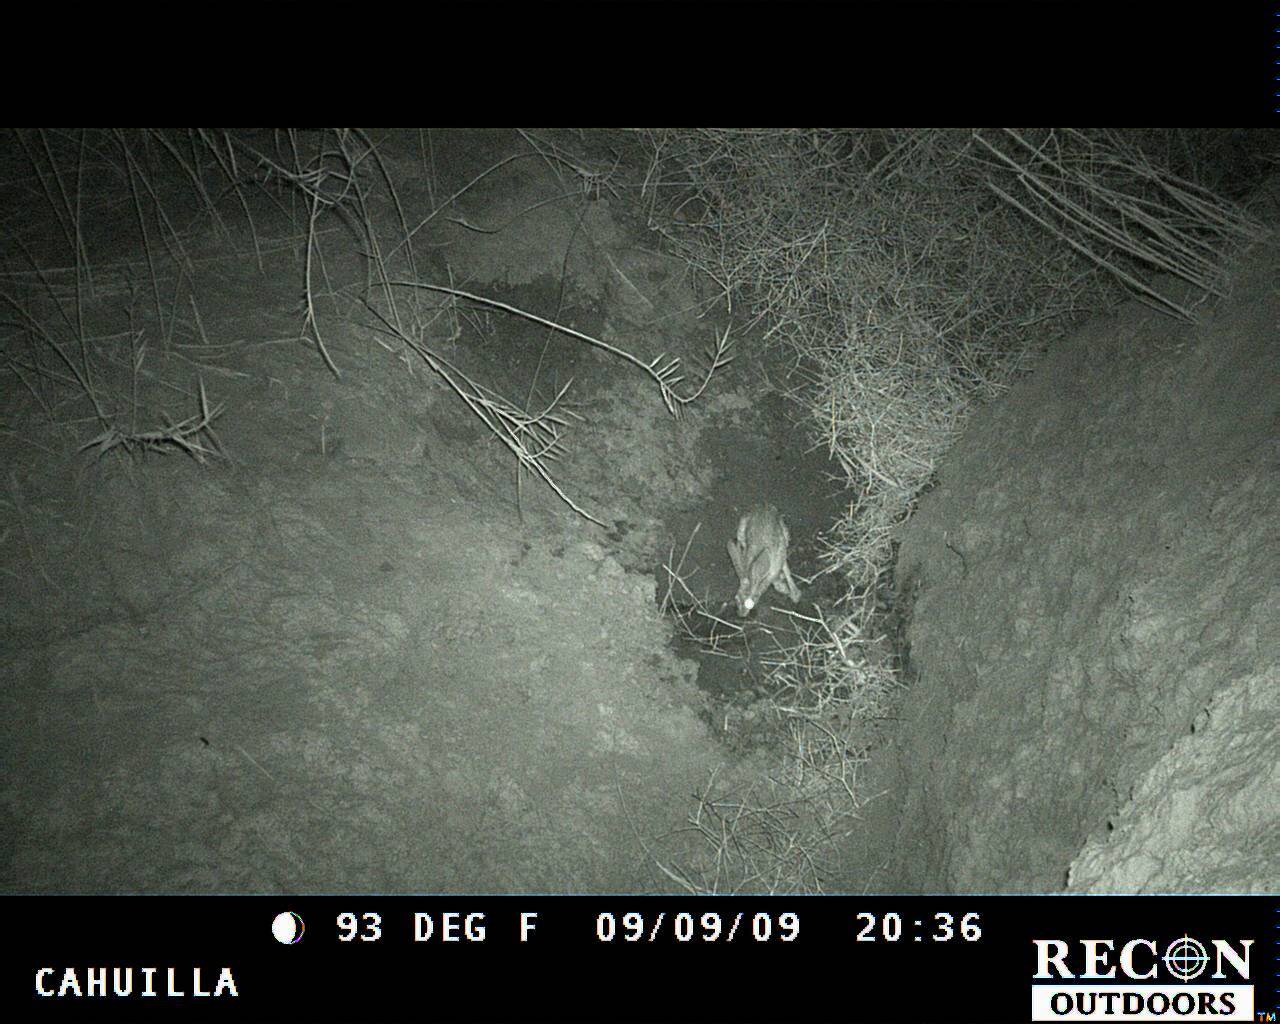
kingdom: Animalia
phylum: Chordata
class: Mammalia
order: Lagomorpha
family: Leporidae
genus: Lepus
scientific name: Lepus californicus
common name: Black-tailed jackrabbit
